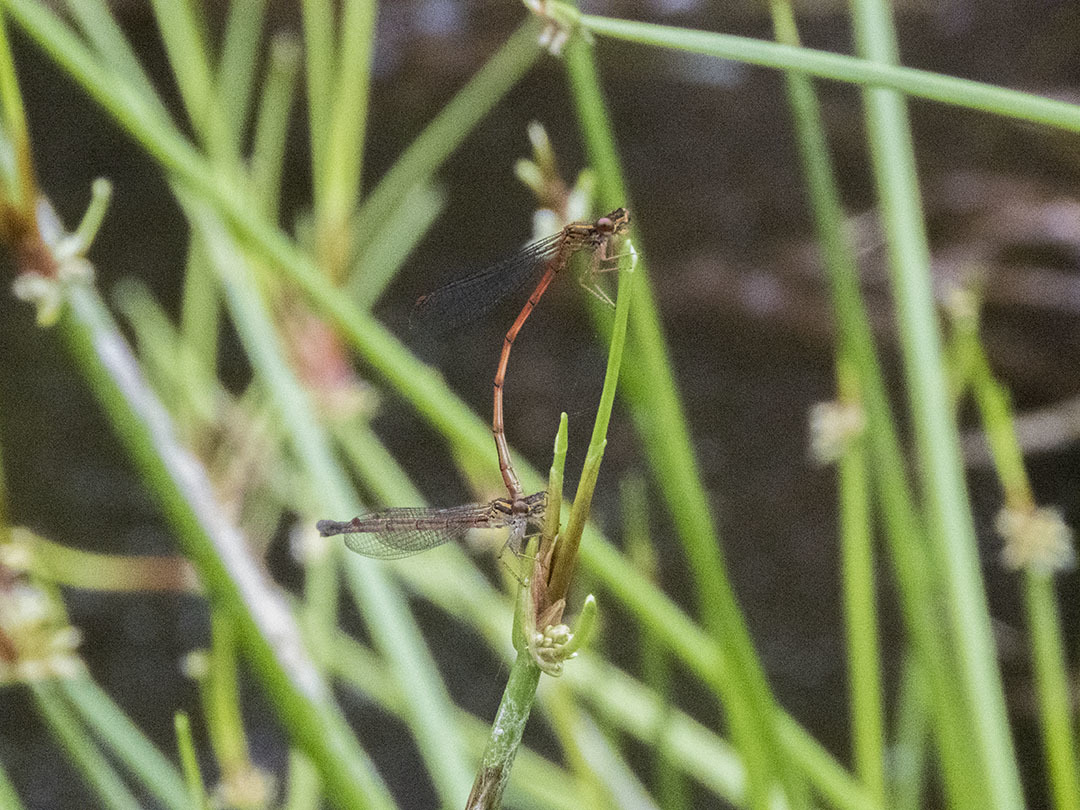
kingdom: Animalia
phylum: Arthropoda
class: Insecta
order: Odonata
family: Coenagrionidae
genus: Xanthocnemis
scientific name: Xanthocnemis zealandica
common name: Common redcoat damselfly
